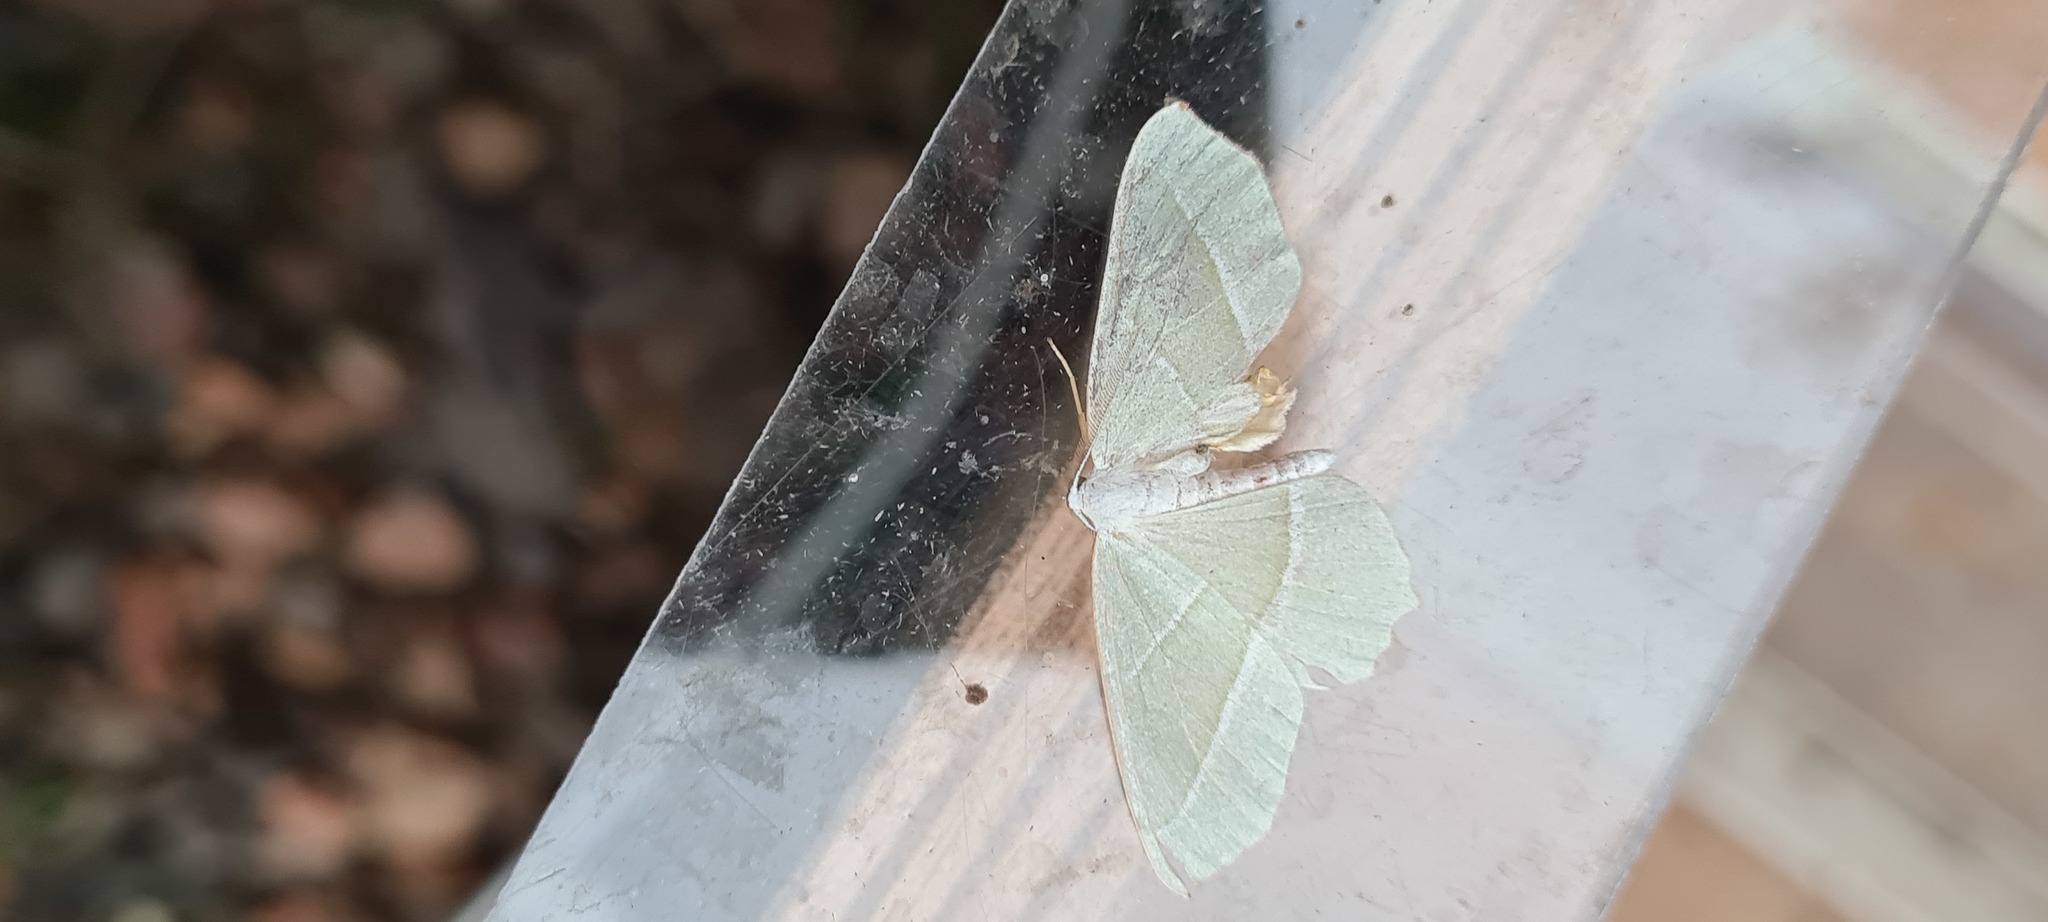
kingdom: Animalia
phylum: Arthropoda
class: Insecta
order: Lepidoptera
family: Geometridae
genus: Campaea
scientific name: Campaea margaritaria
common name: Light emerald
